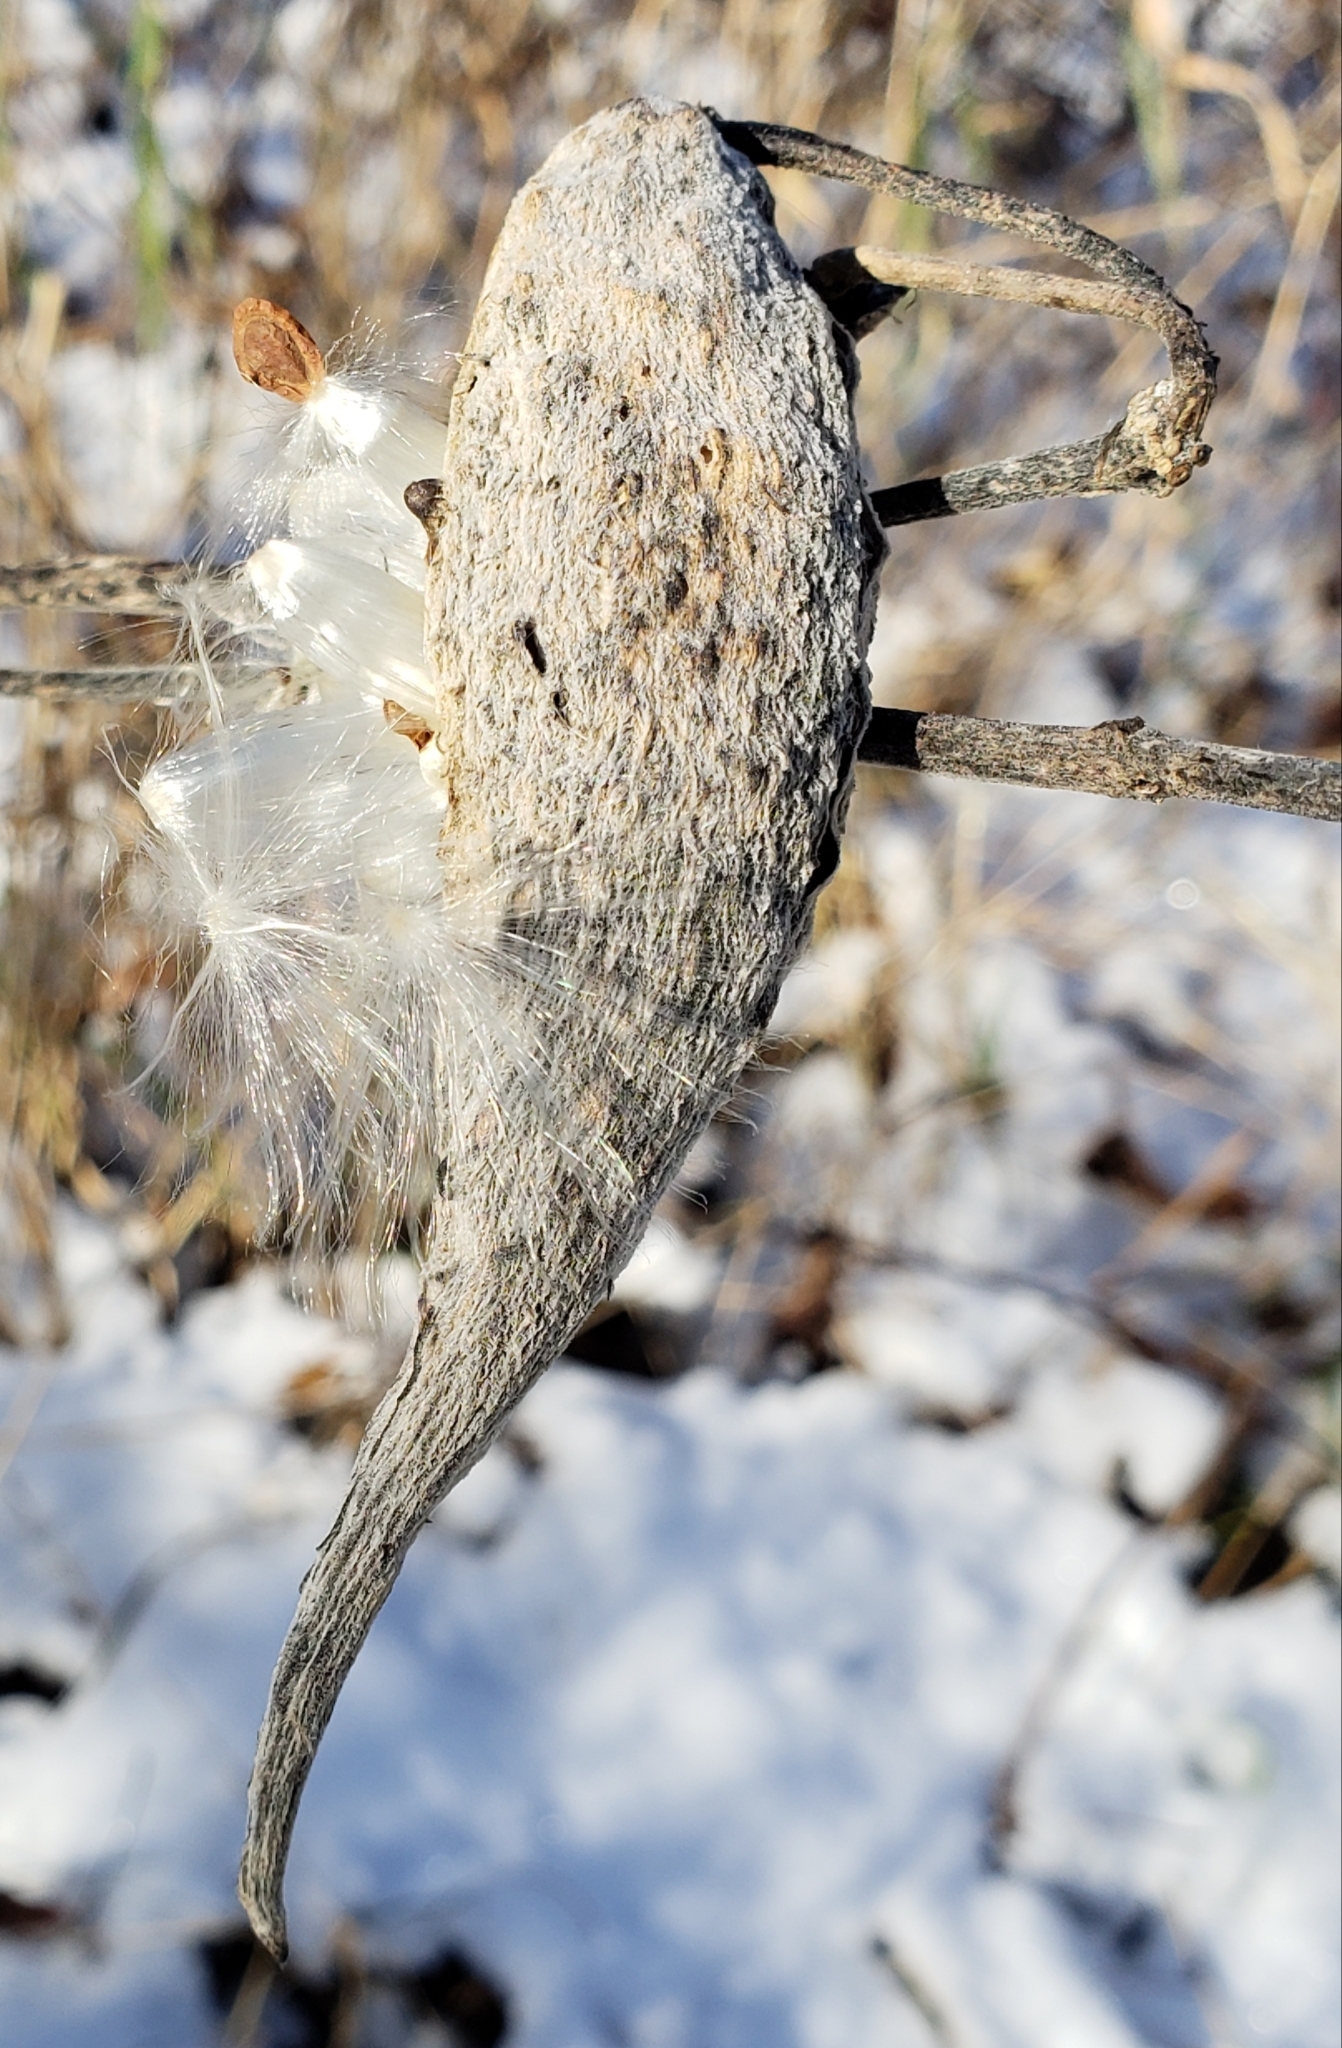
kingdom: Plantae
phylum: Tracheophyta
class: Magnoliopsida
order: Gentianales
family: Apocynaceae
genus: Asclepias
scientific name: Asclepias syriaca
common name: Common milkweed
